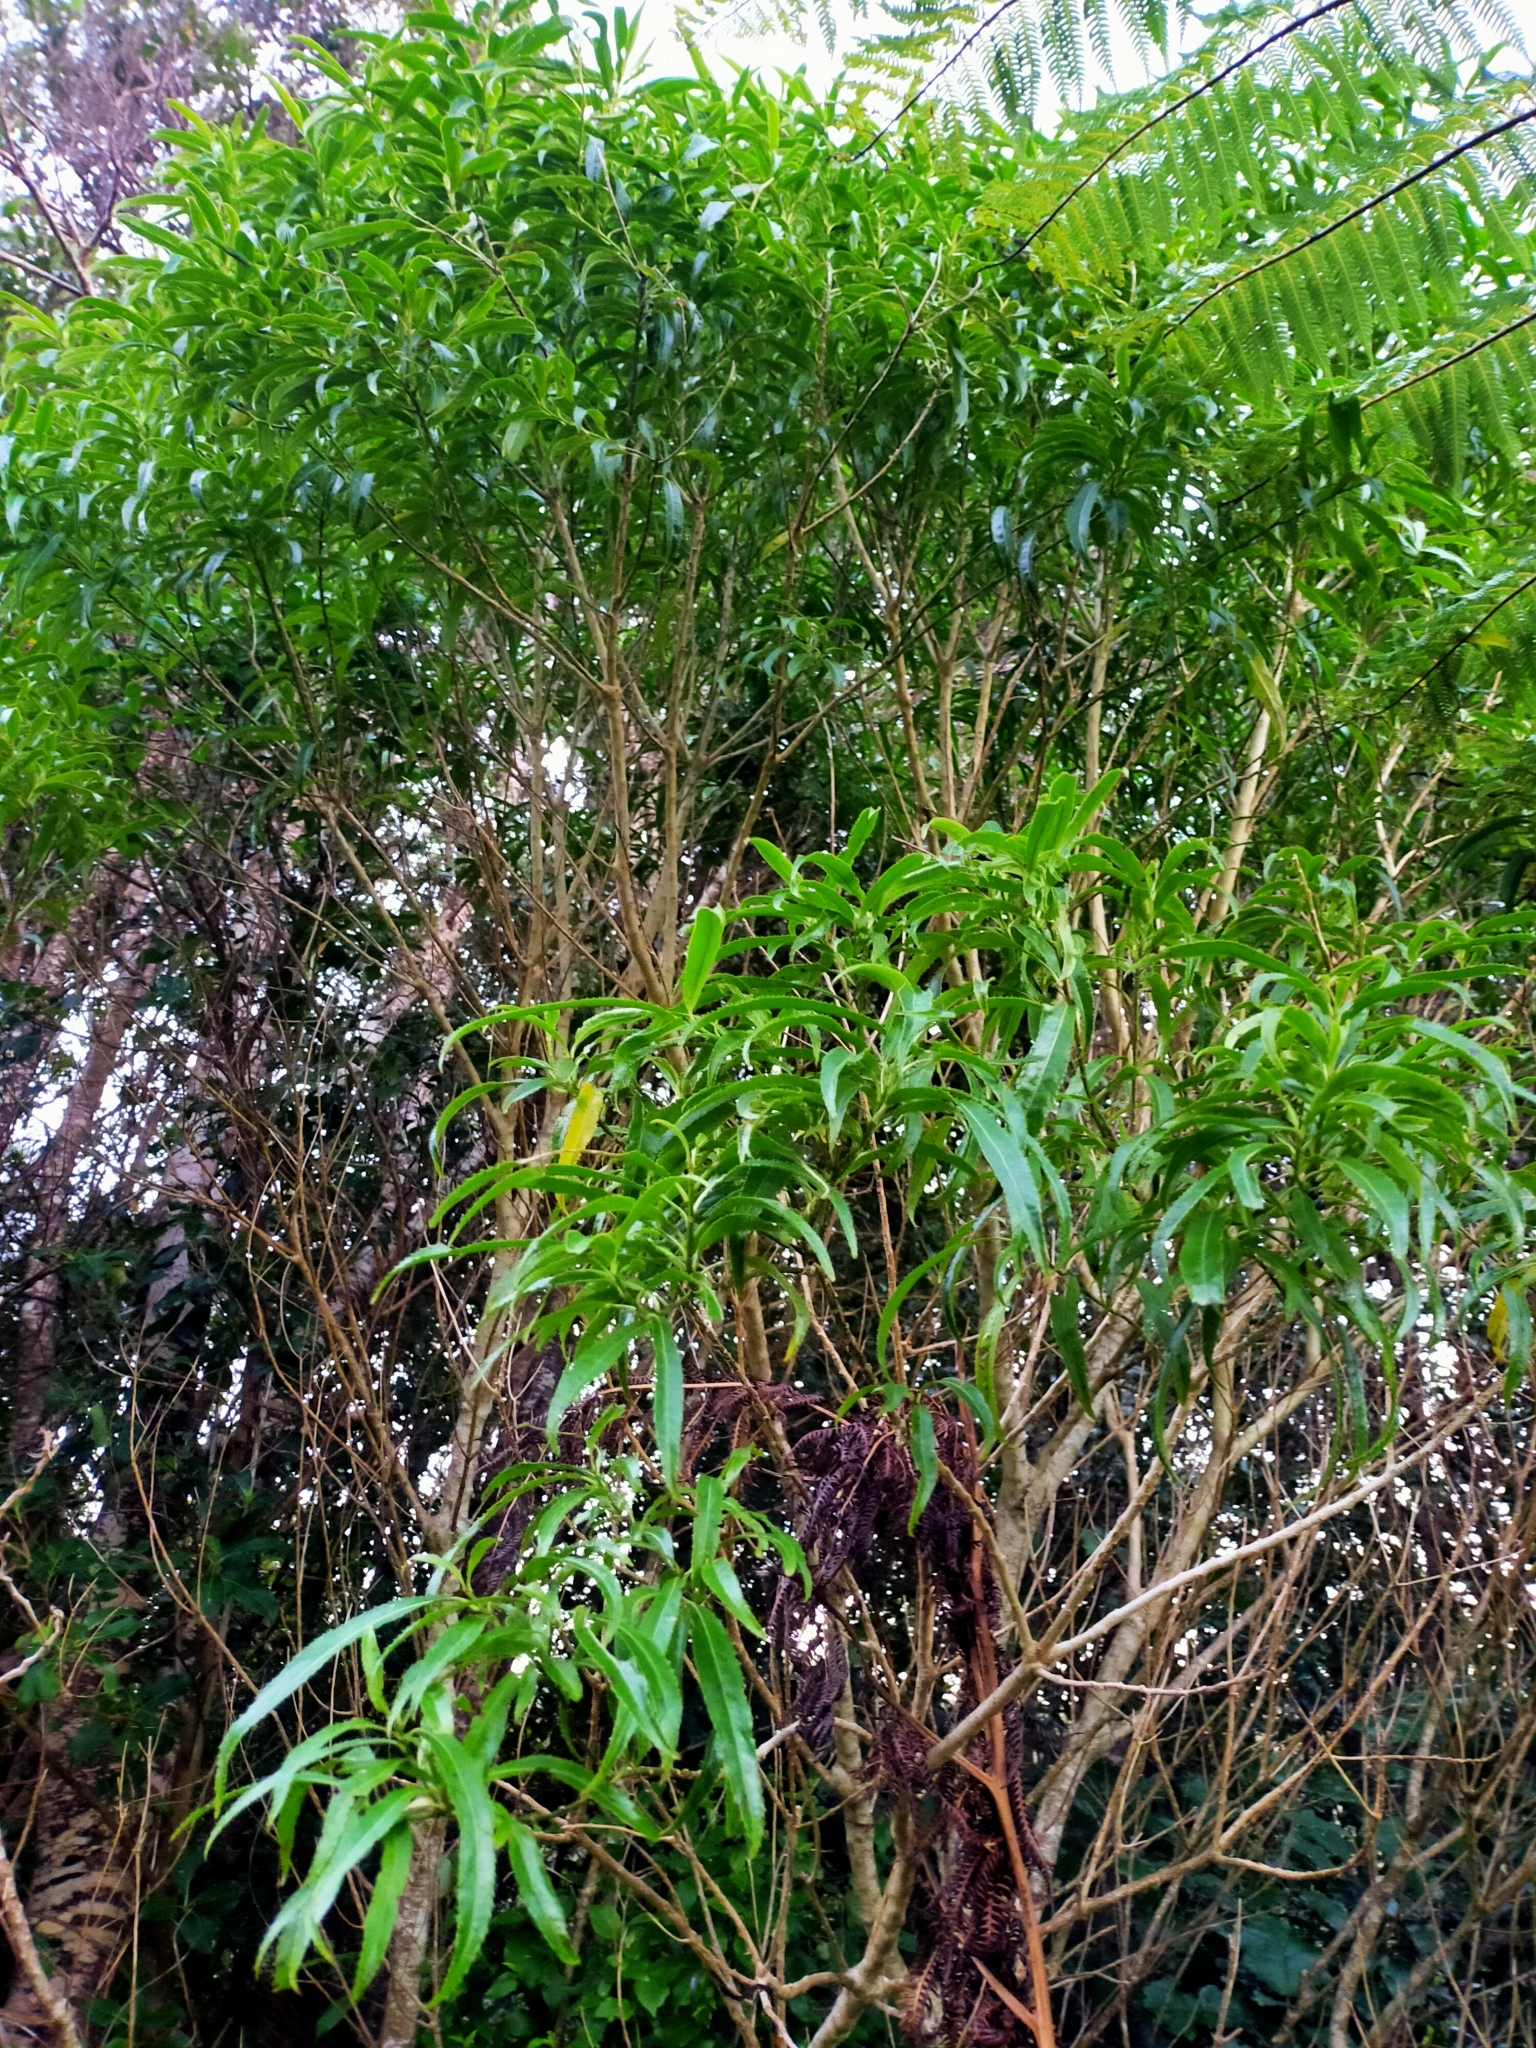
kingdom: Plantae
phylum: Tracheophyta
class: Magnoliopsida
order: Malpighiales
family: Violaceae
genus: Melicytus
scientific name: Melicytus lanceolatus
